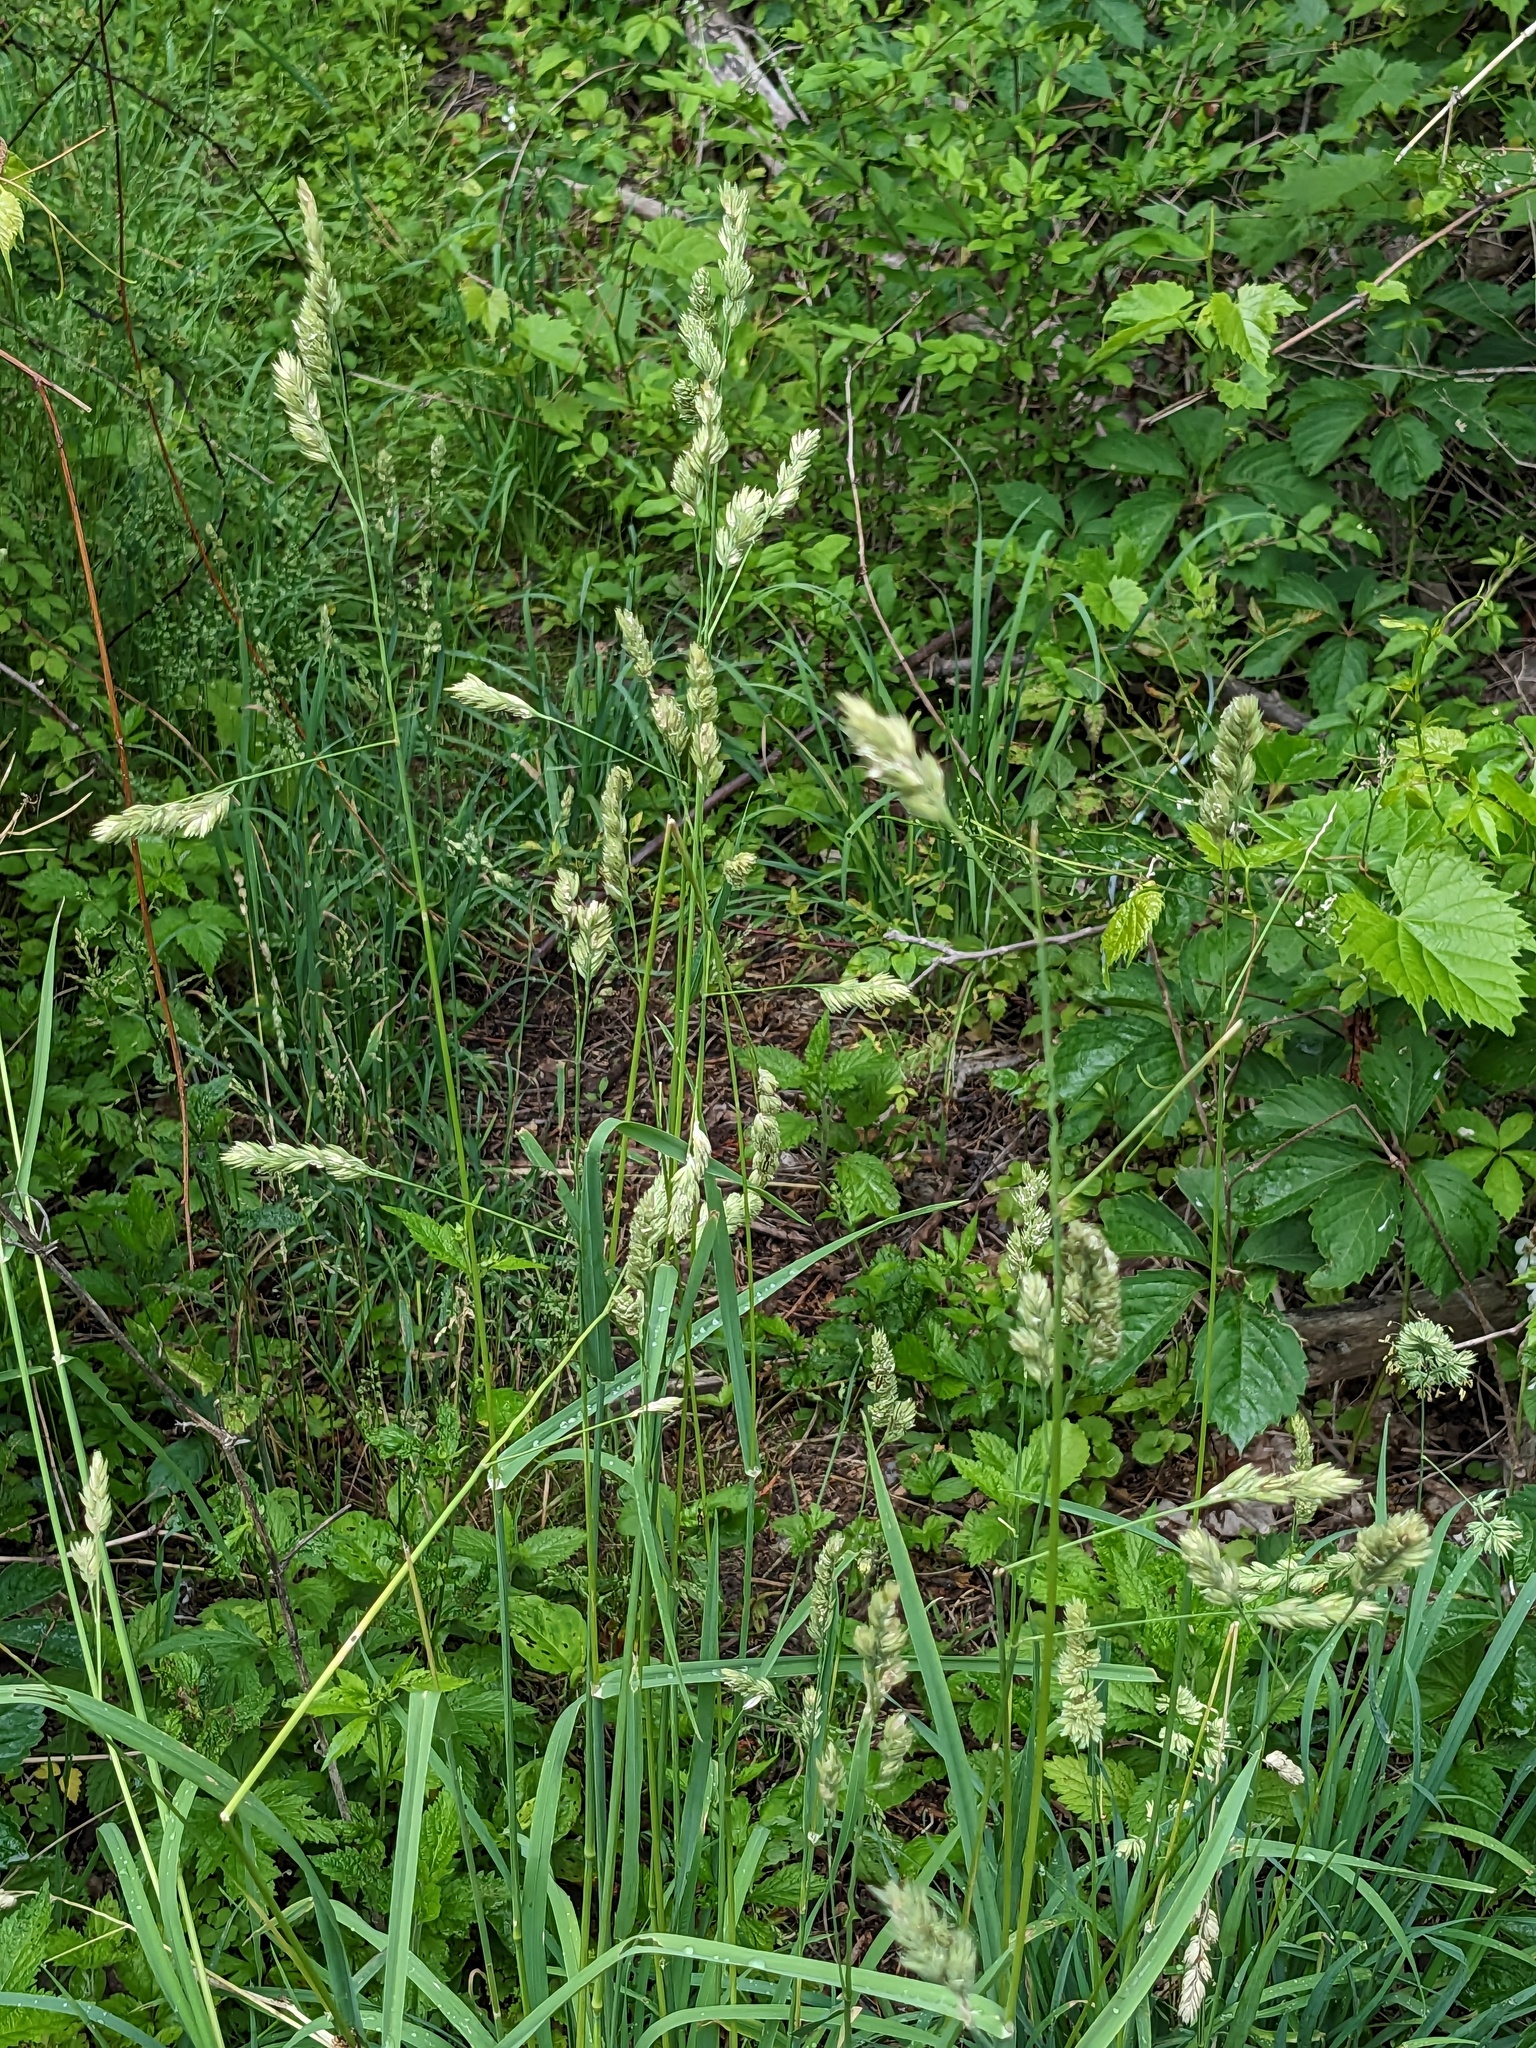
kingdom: Plantae
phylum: Tracheophyta
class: Liliopsida
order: Poales
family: Poaceae
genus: Dactylis
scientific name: Dactylis glomerata
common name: Orchardgrass
